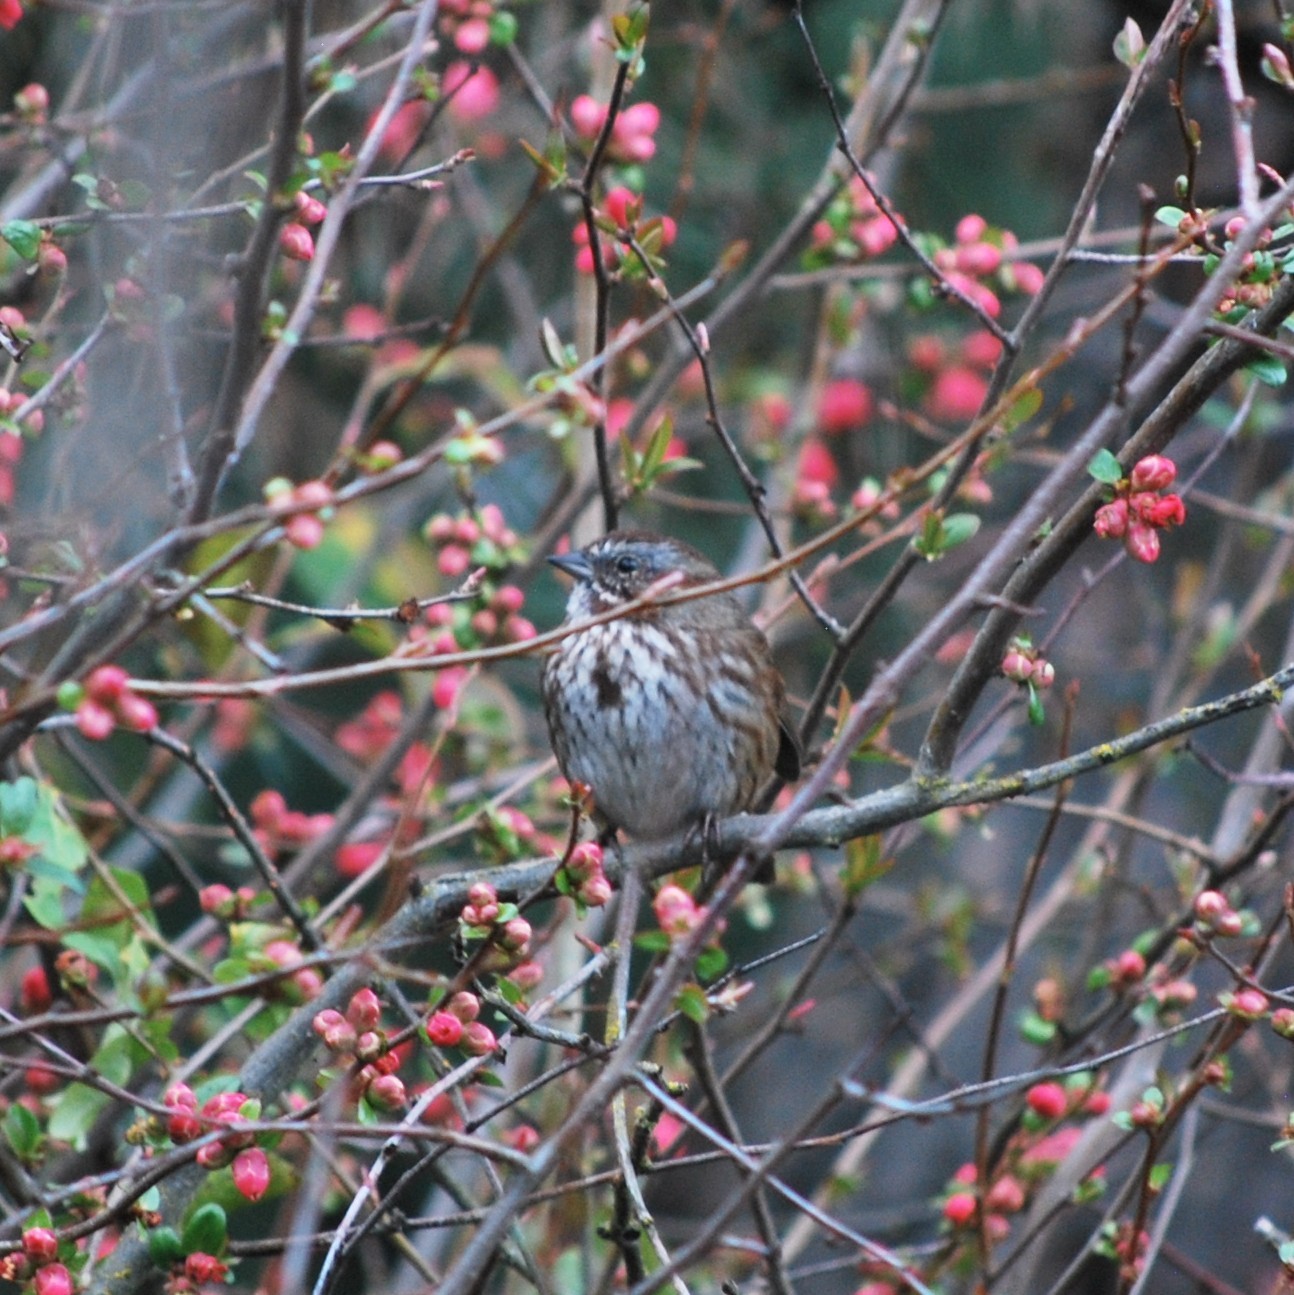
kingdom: Animalia
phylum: Chordata
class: Aves
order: Passeriformes
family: Passerellidae
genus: Melospiza
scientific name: Melospiza melodia
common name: Song sparrow
